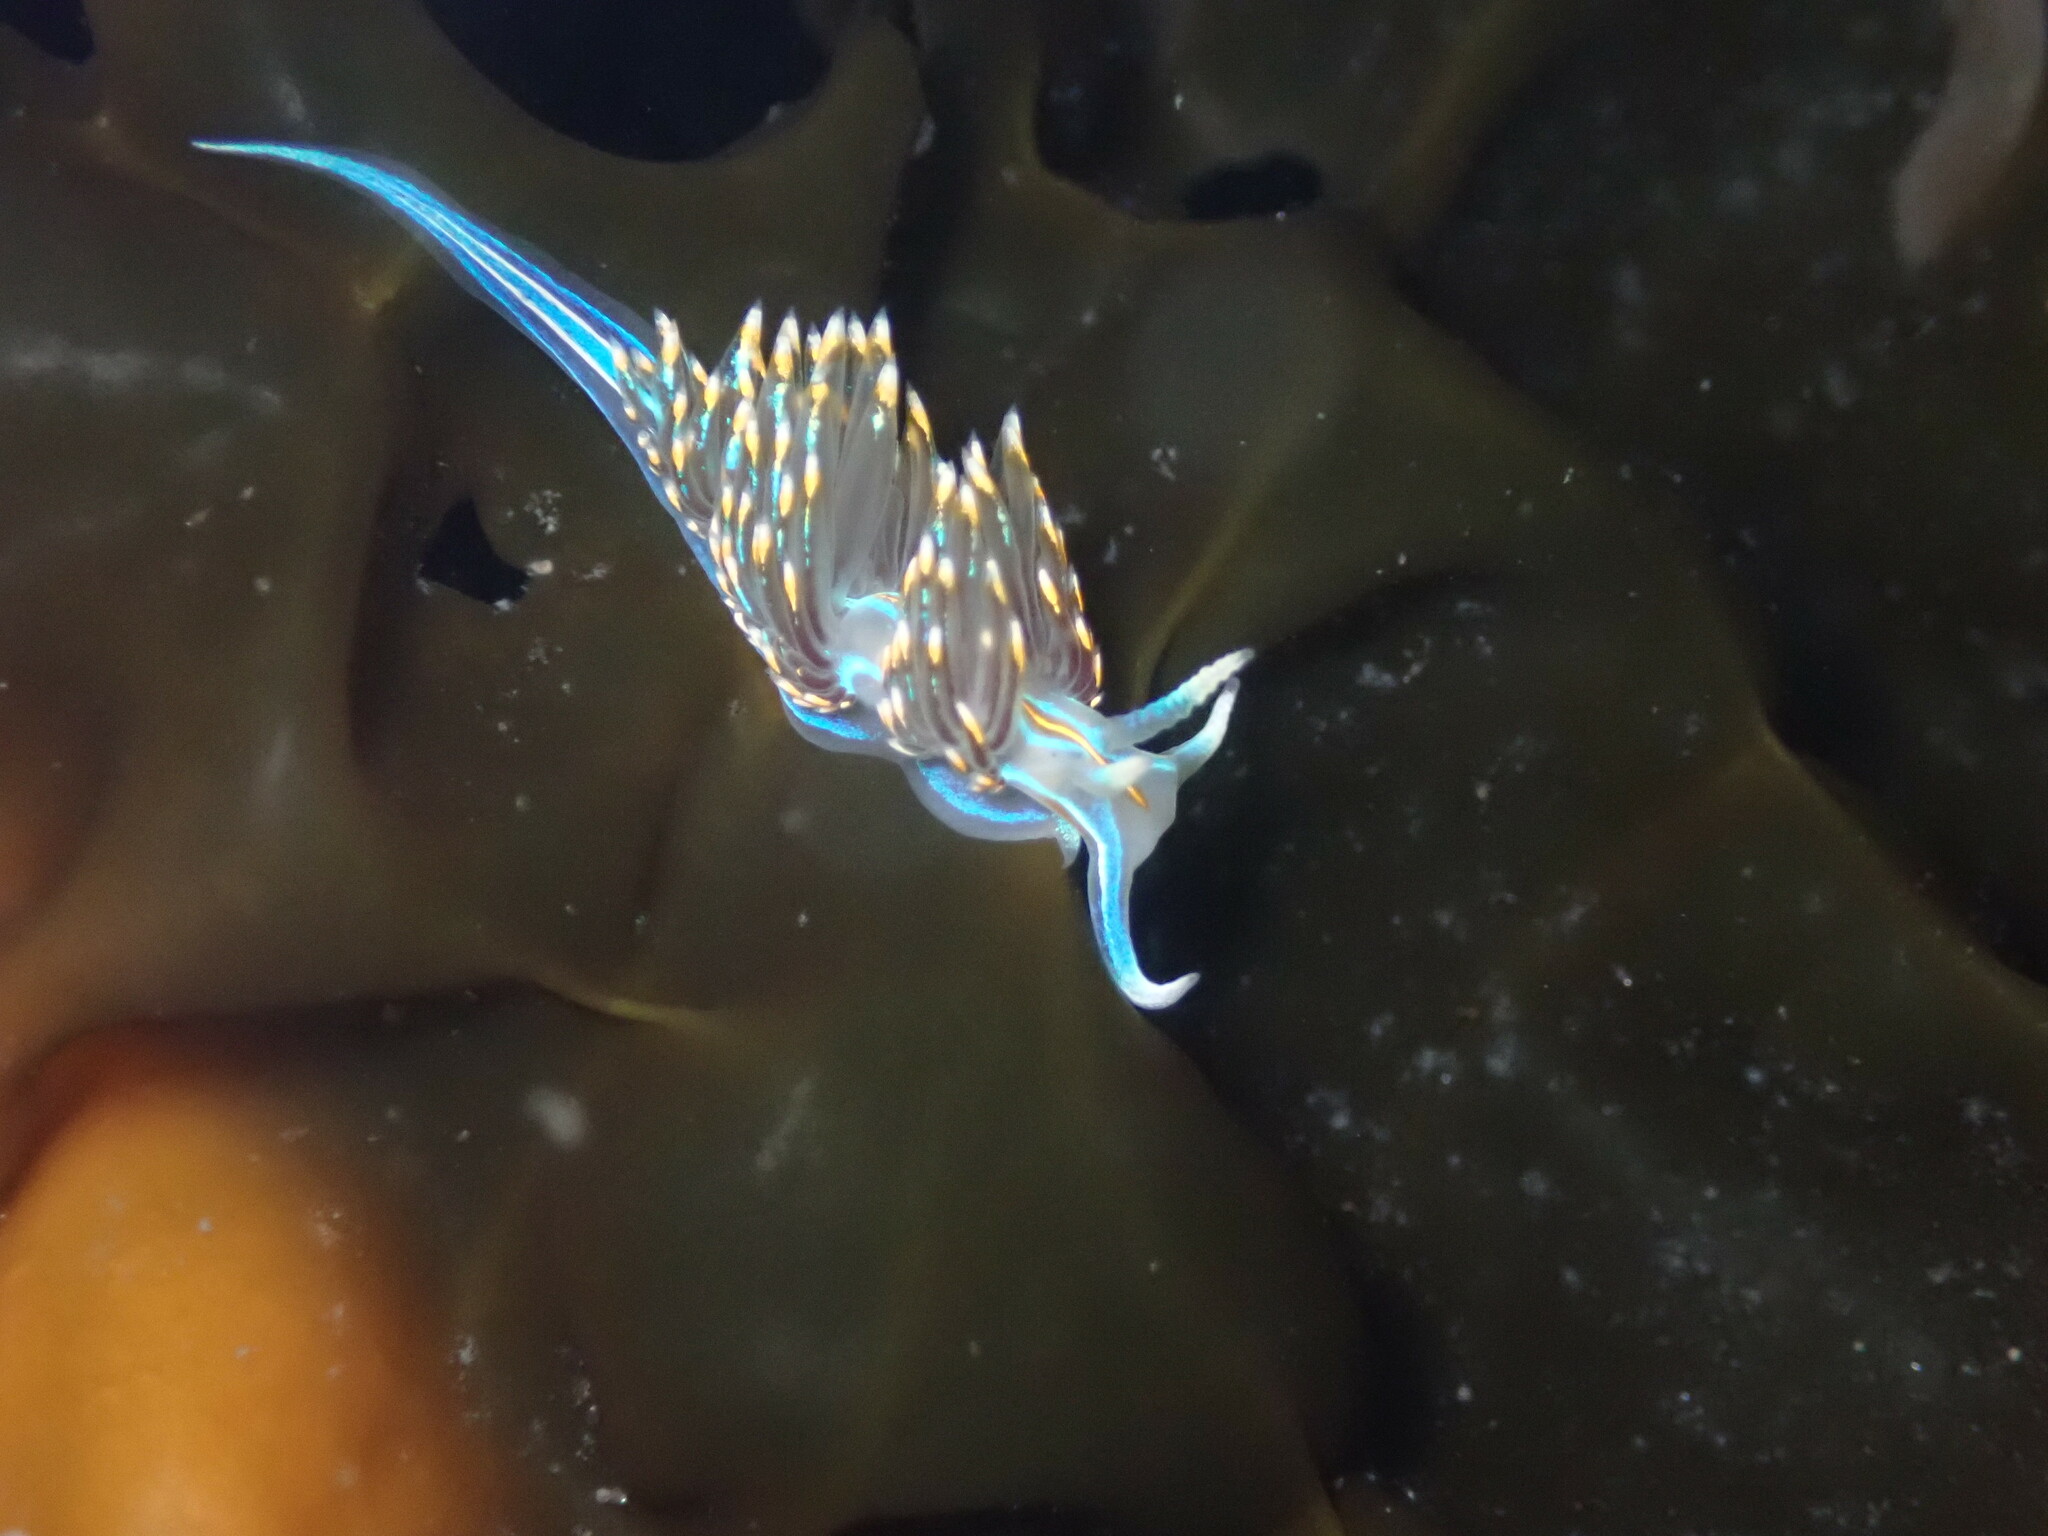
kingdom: Animalia
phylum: Mollusca
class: Gastropoda
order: Nudibranchia
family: Myrrhinidae
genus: Hermissenda
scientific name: Hermissenda opalescens
